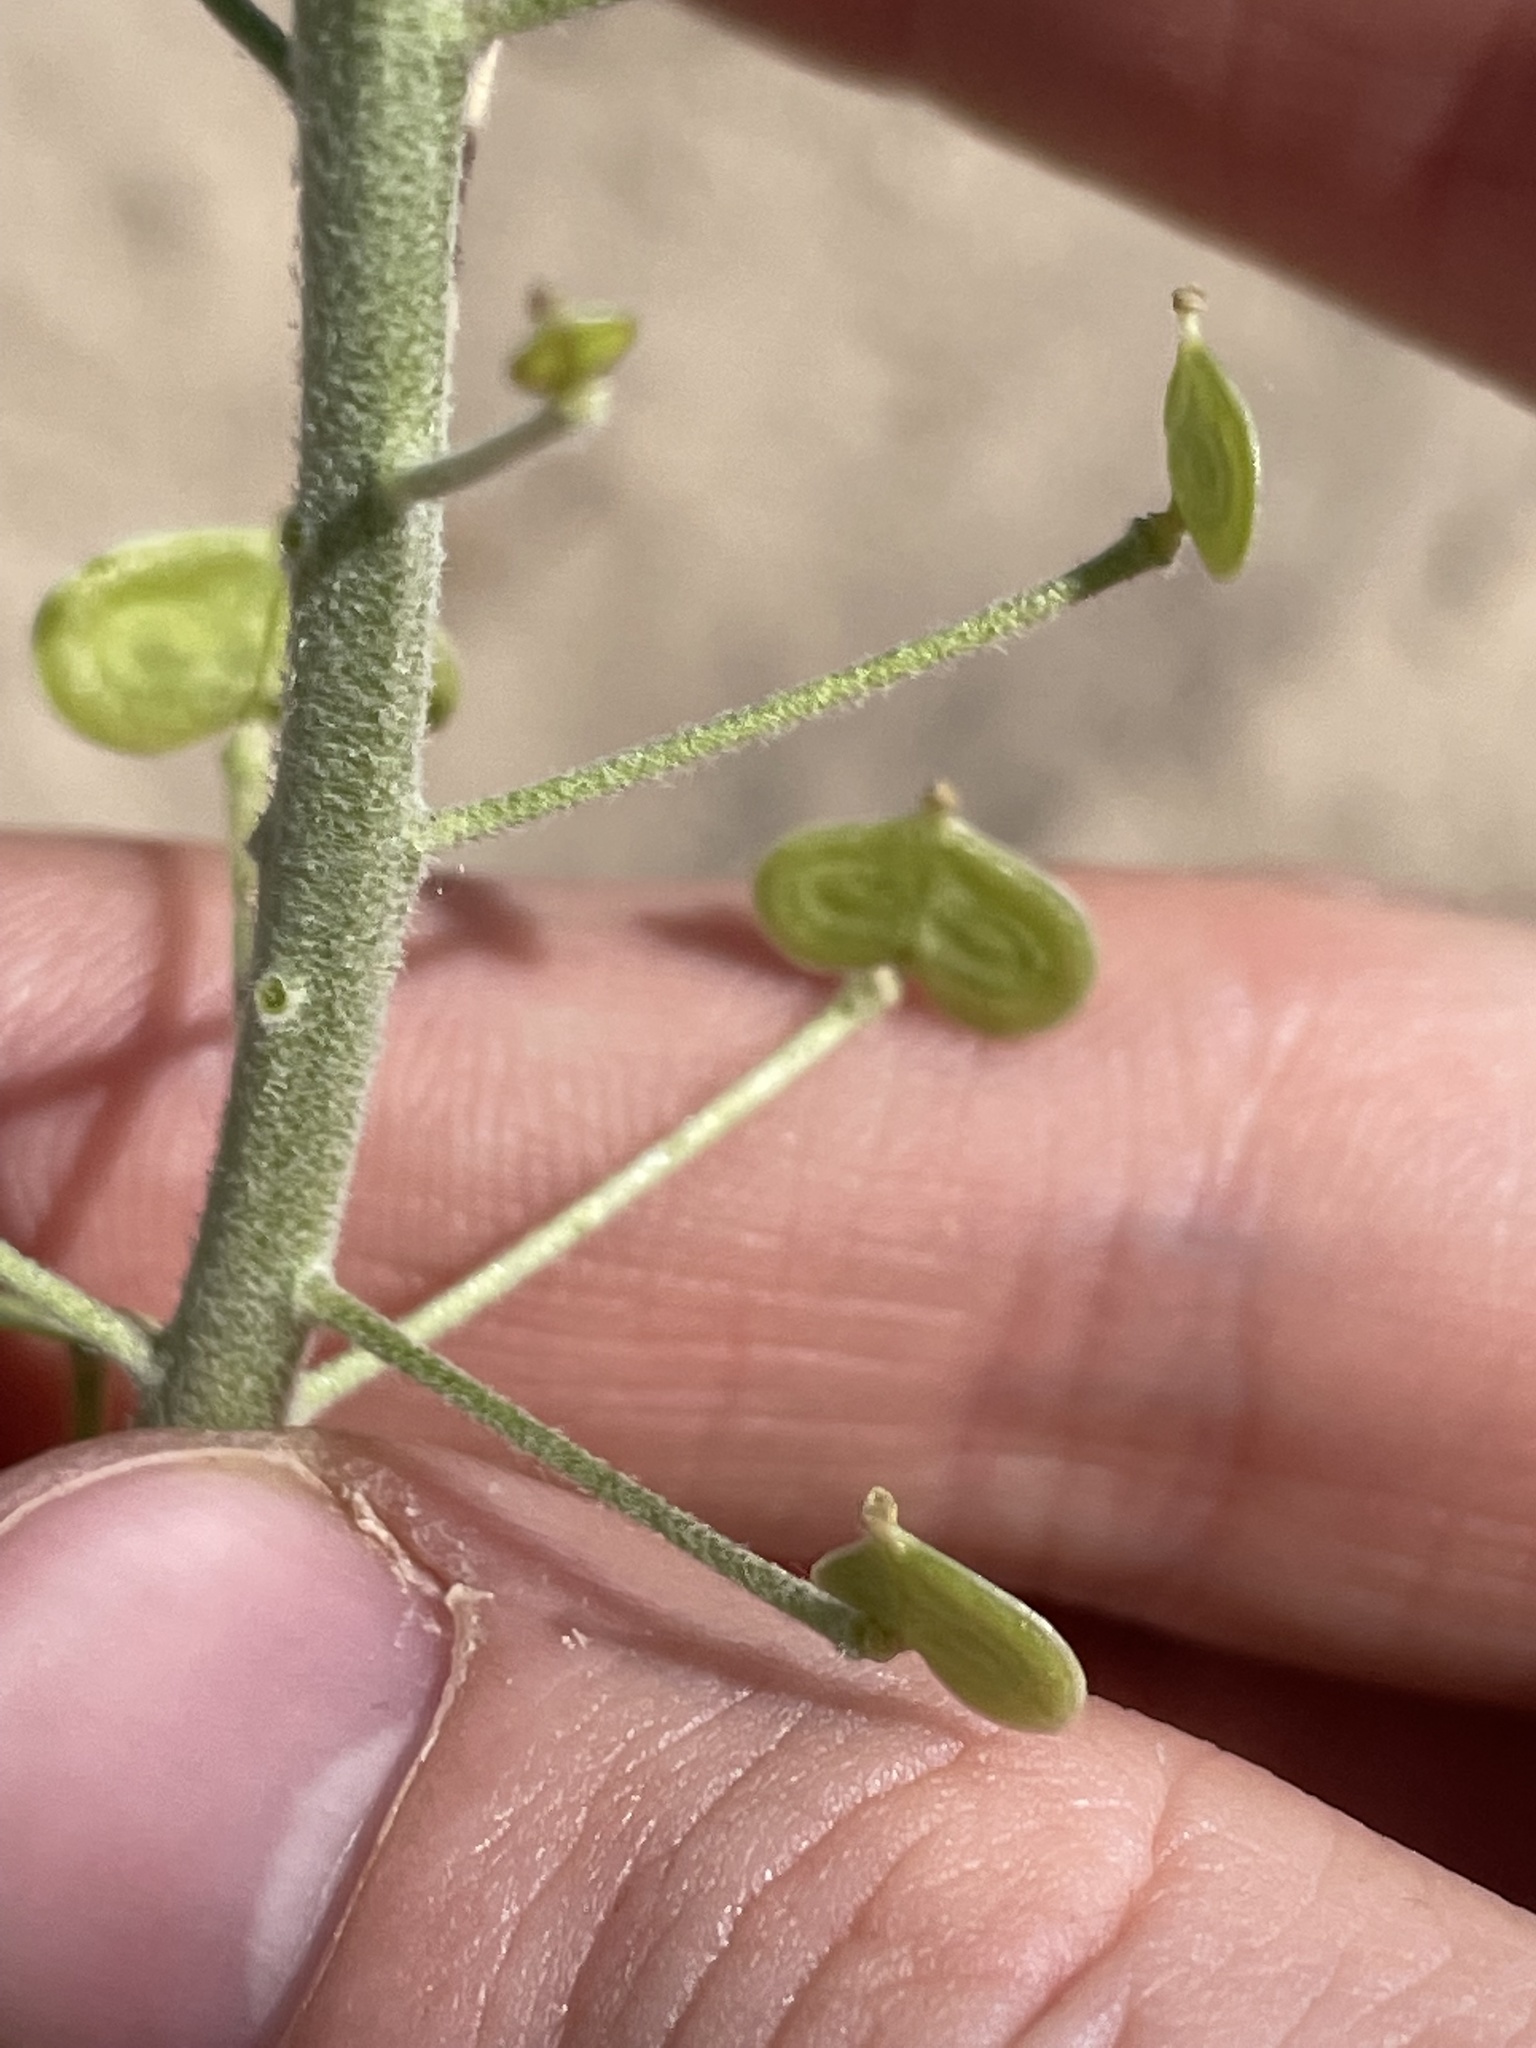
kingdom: Plantae
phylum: Tracheophyta
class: Magnoliopsida
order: Brassicales
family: Brassicaceae
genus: Dimorphocarpa
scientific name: Dimorphocarpa wislizenii
